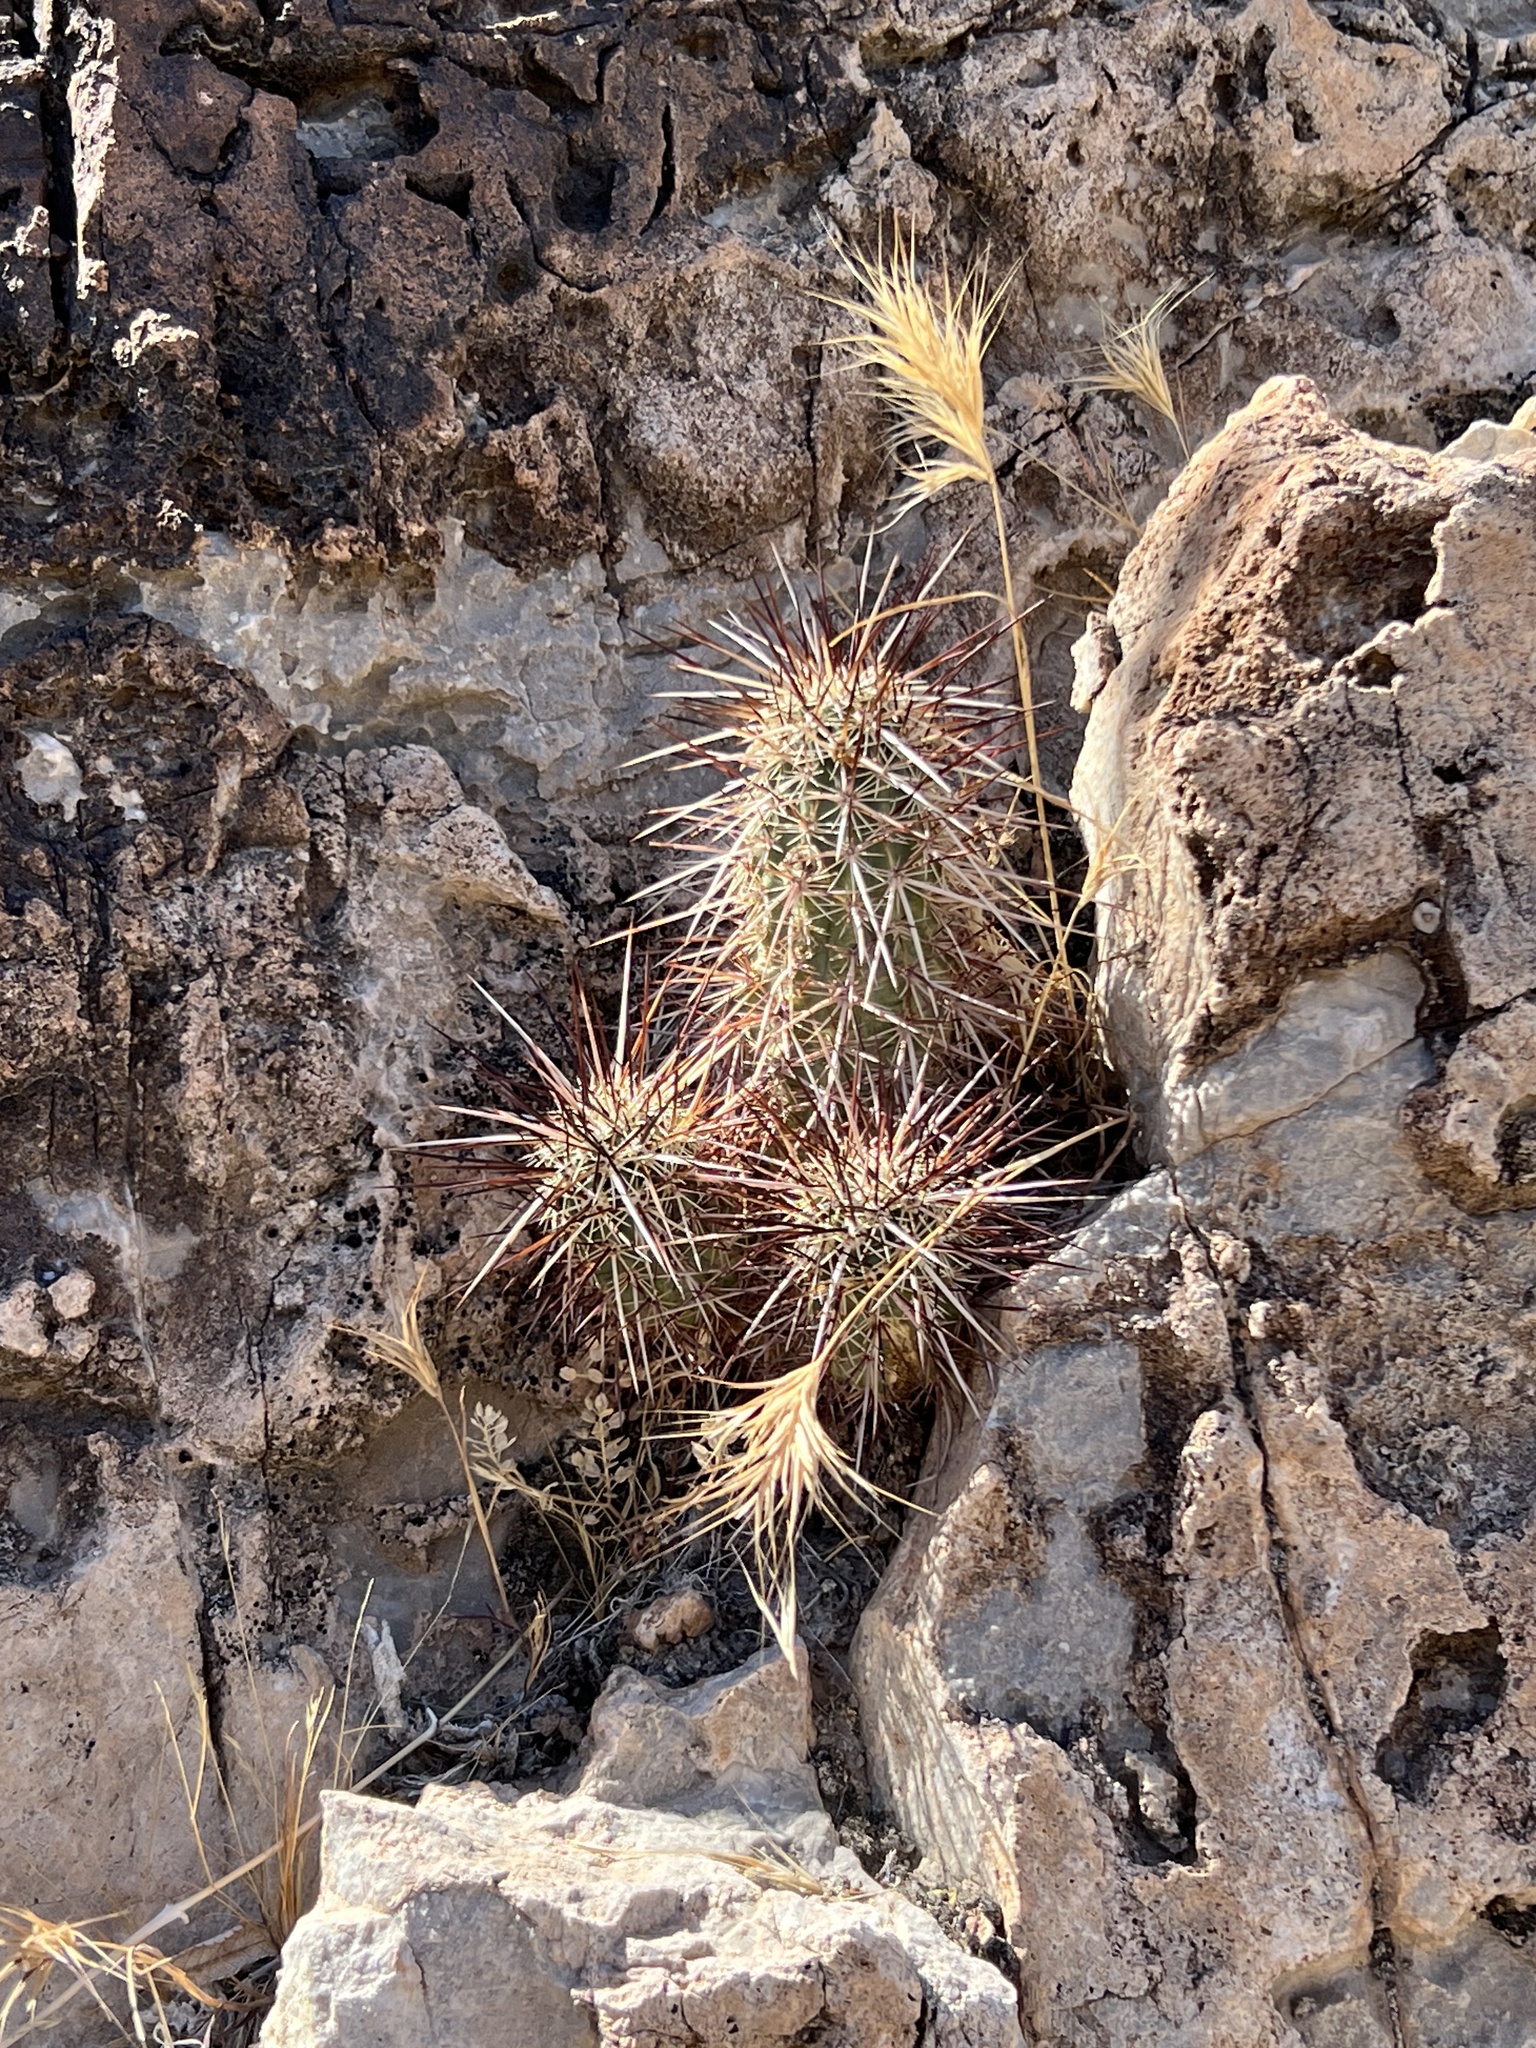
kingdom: Plantae
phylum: Tracheophyta
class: Magnoliopsida
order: Caryophyllales
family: Cactaceae
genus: Echinocereus
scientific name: Echinocereus engelmannii
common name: Engelmann's hedgehog cactus
